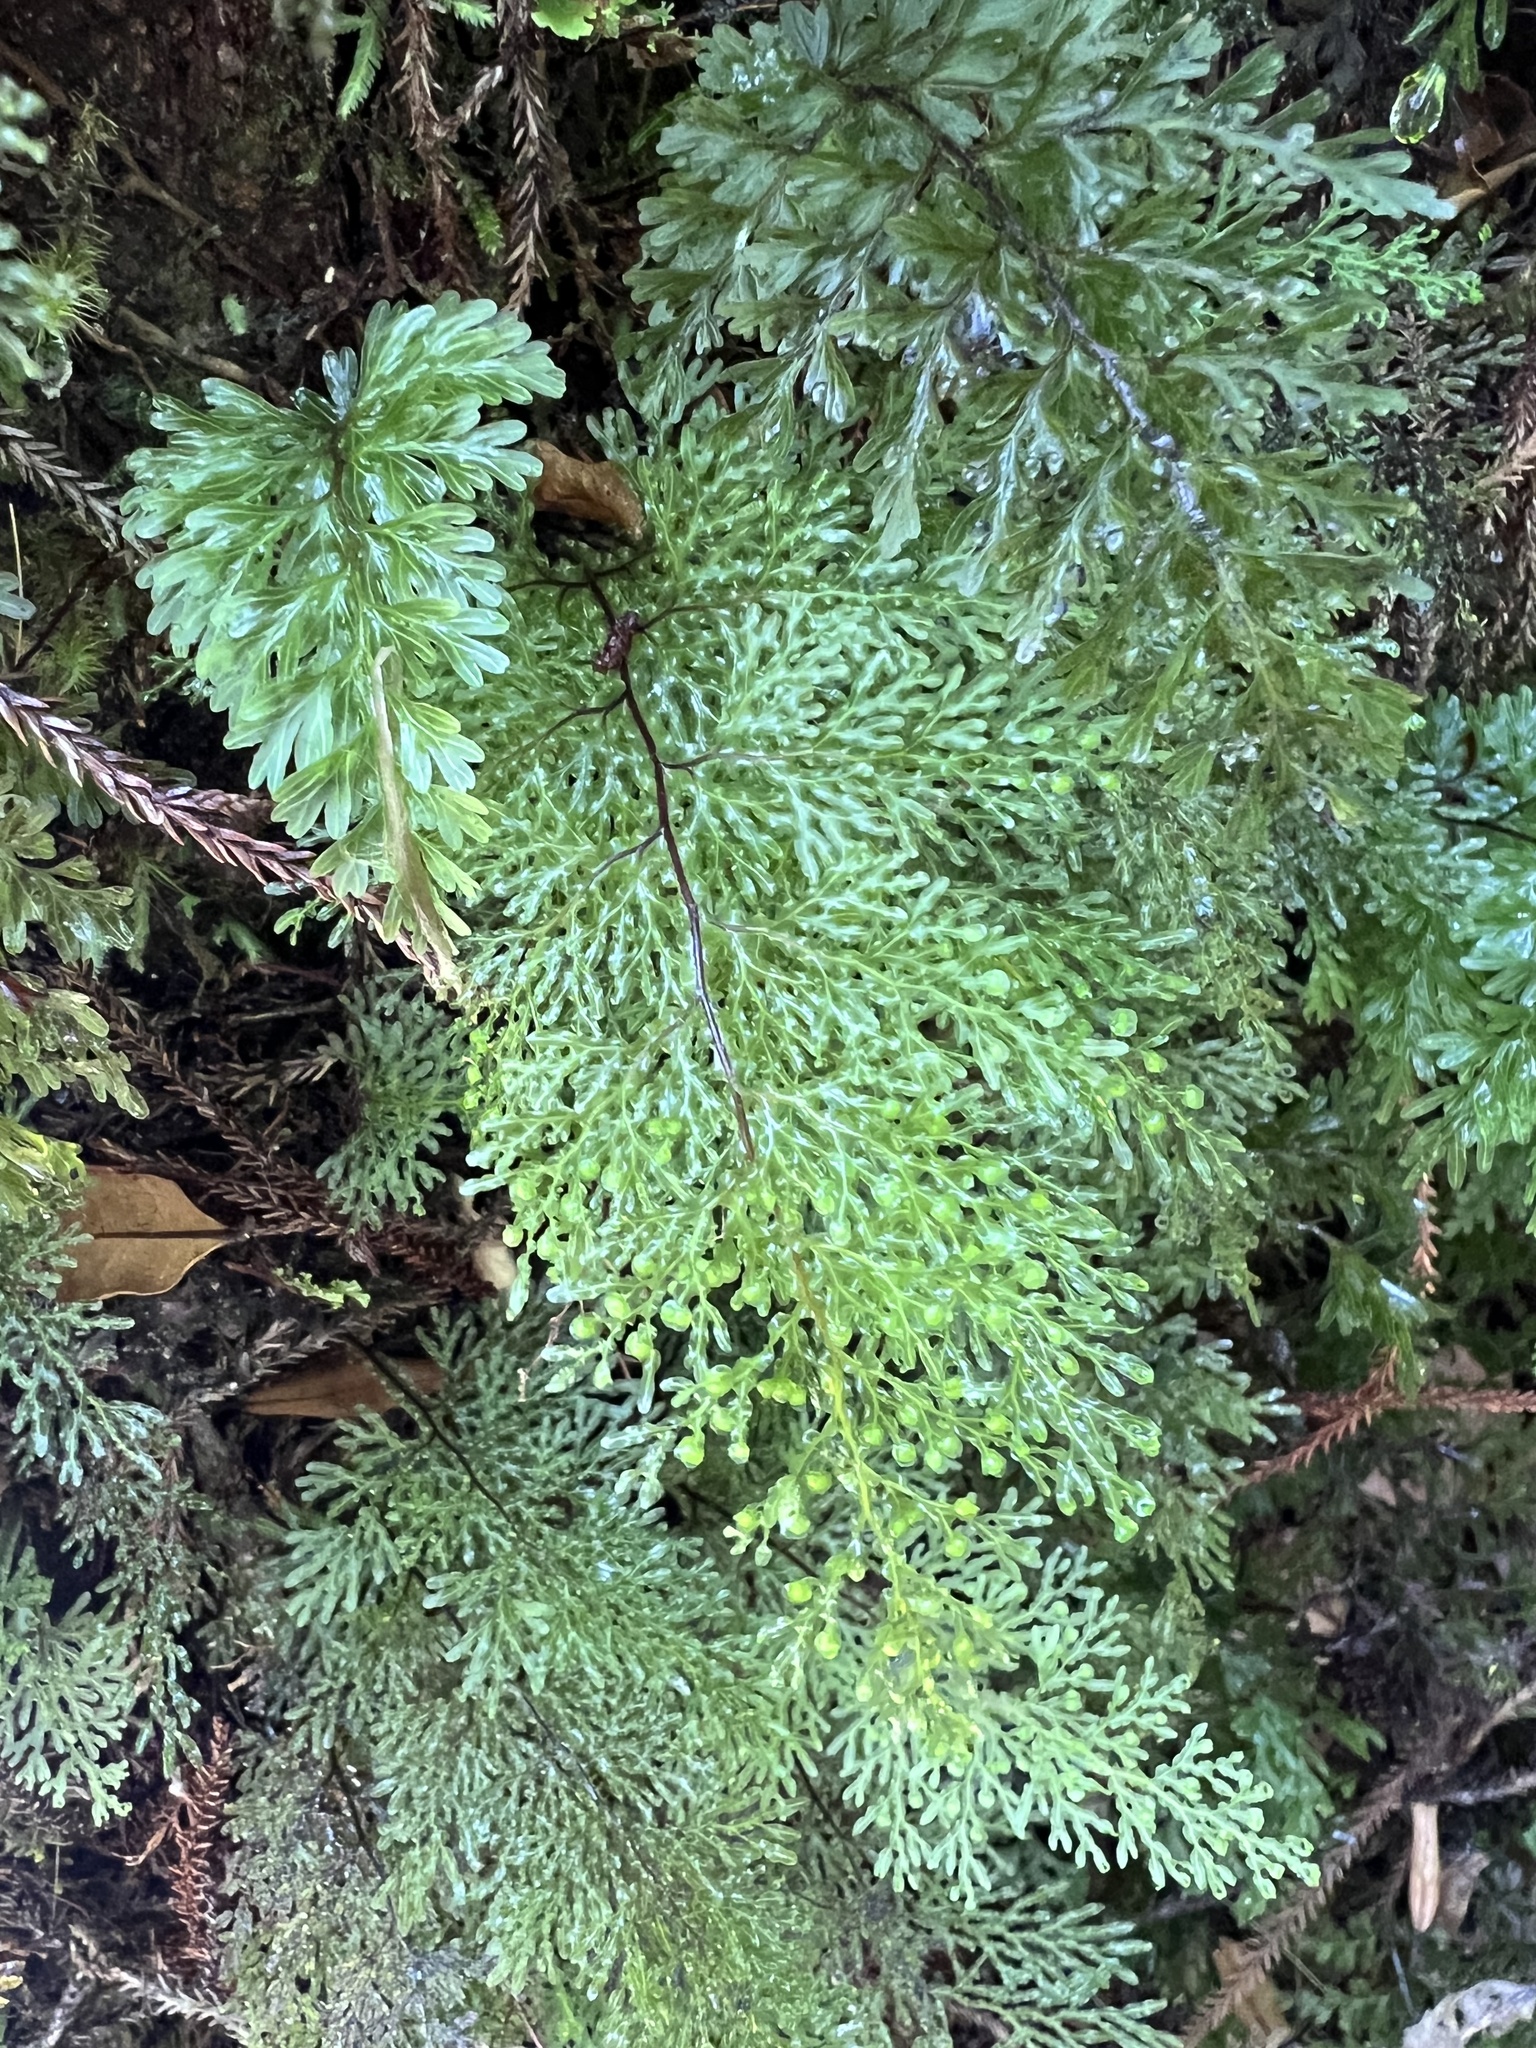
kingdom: Plantae
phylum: Tracheophyta
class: Polypodiopsida
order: Hymenophyllales
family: Hymenophyllaceae
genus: Hymenophyllum
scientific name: Hymenophyllum flexuosum
